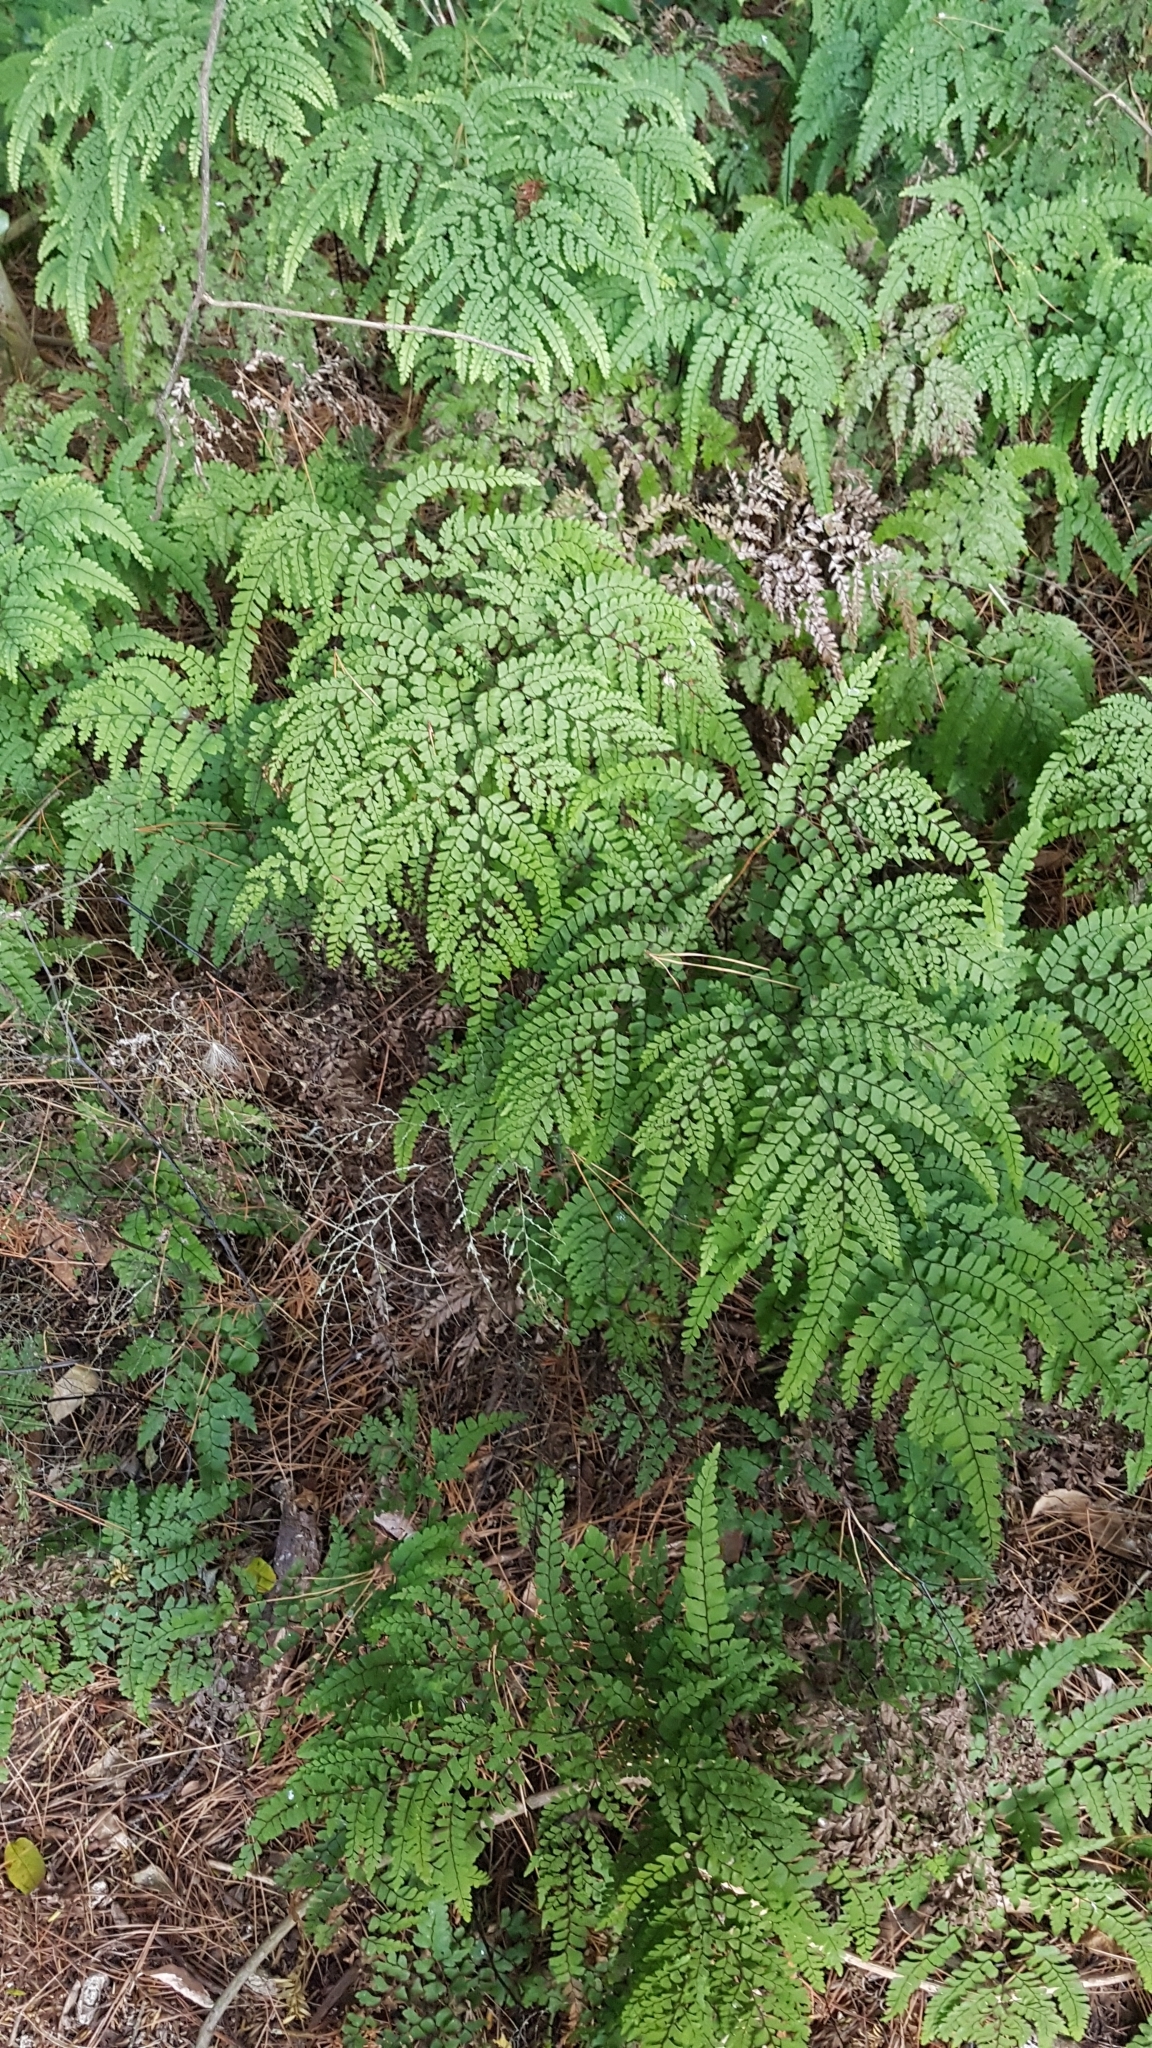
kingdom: Plantae
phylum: Tracheophyta
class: Polypodiopsida
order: Polypodiales
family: Pteridaceae
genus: Adiantum
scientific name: Adiantum formosum
